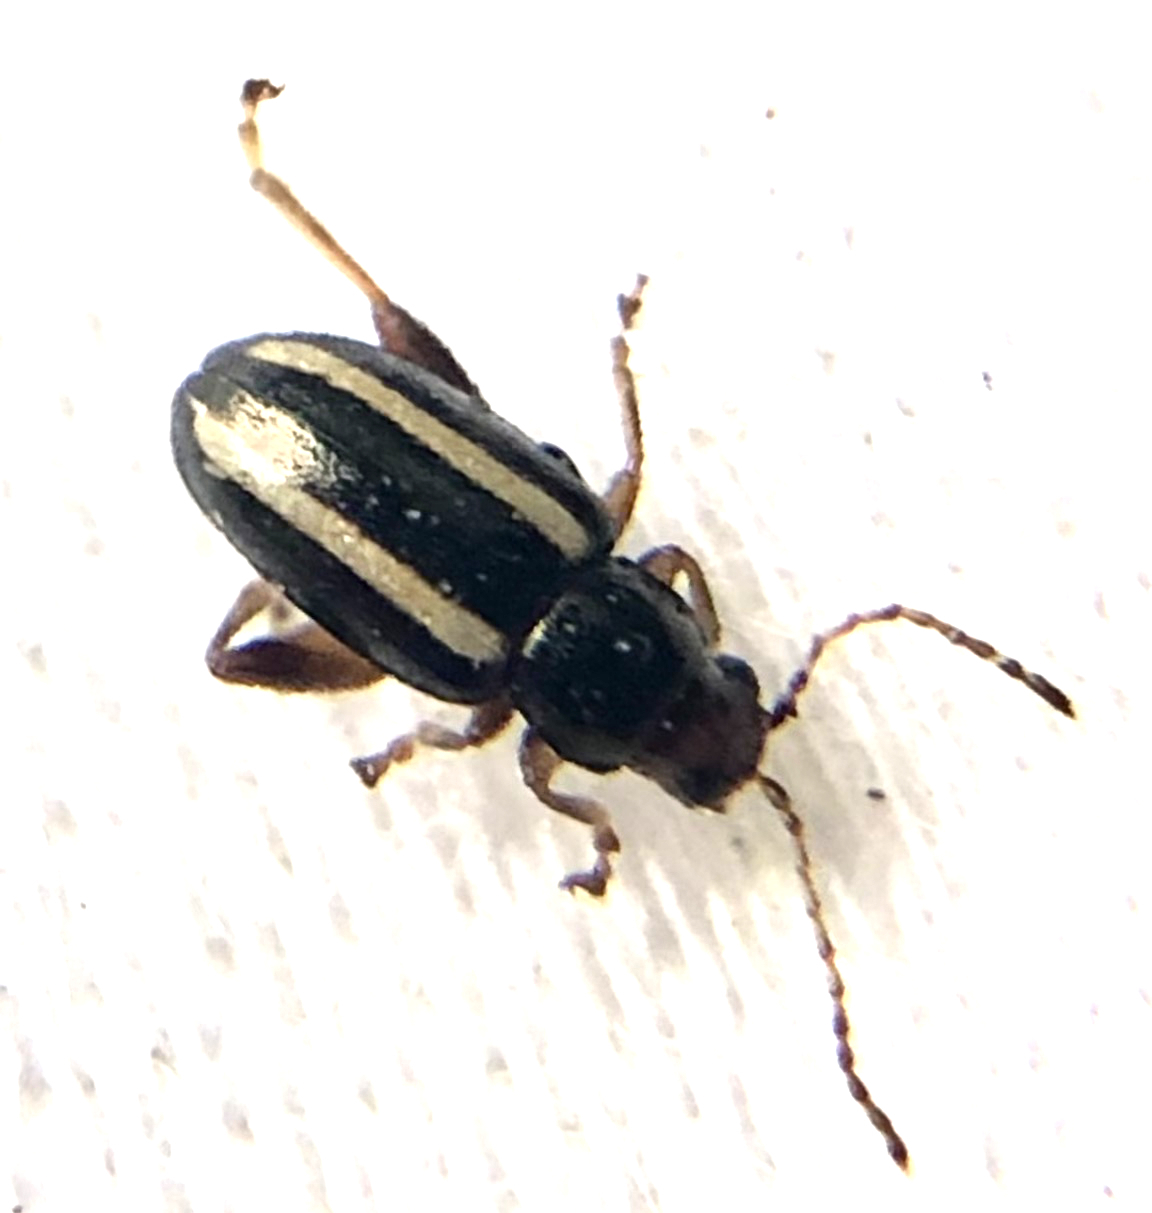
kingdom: Animalia
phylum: Arthropoda
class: Insecta
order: Coleoptera
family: Chrysomelidae
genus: Systena
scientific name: Systena elongata
